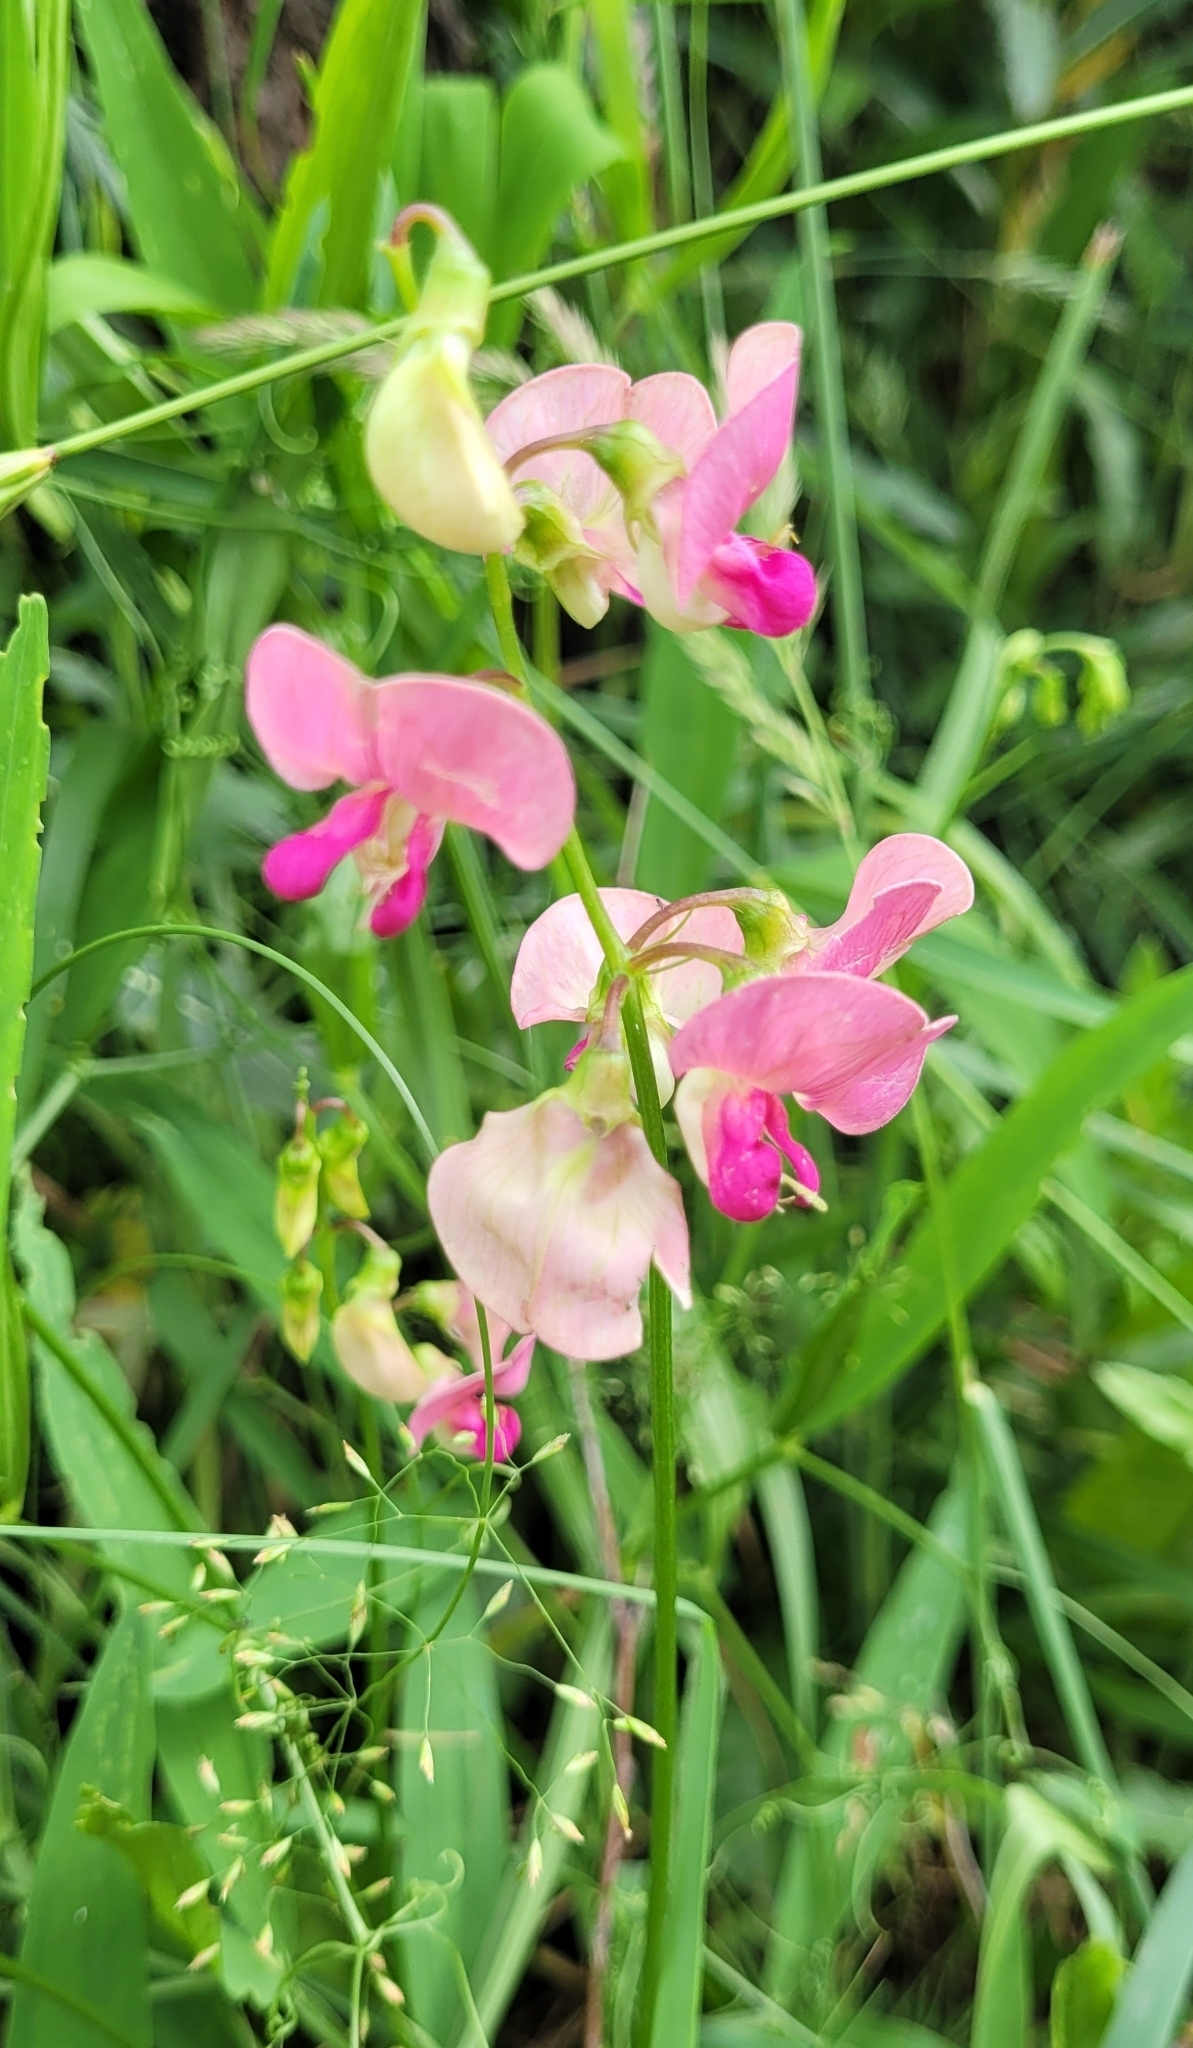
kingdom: Plantae
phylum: Tracheophyta
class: Magnoliopsida
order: Fabales
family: Fabaceae
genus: Lathyrus
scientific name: Lathyrus sylvestris
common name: Flat pea
